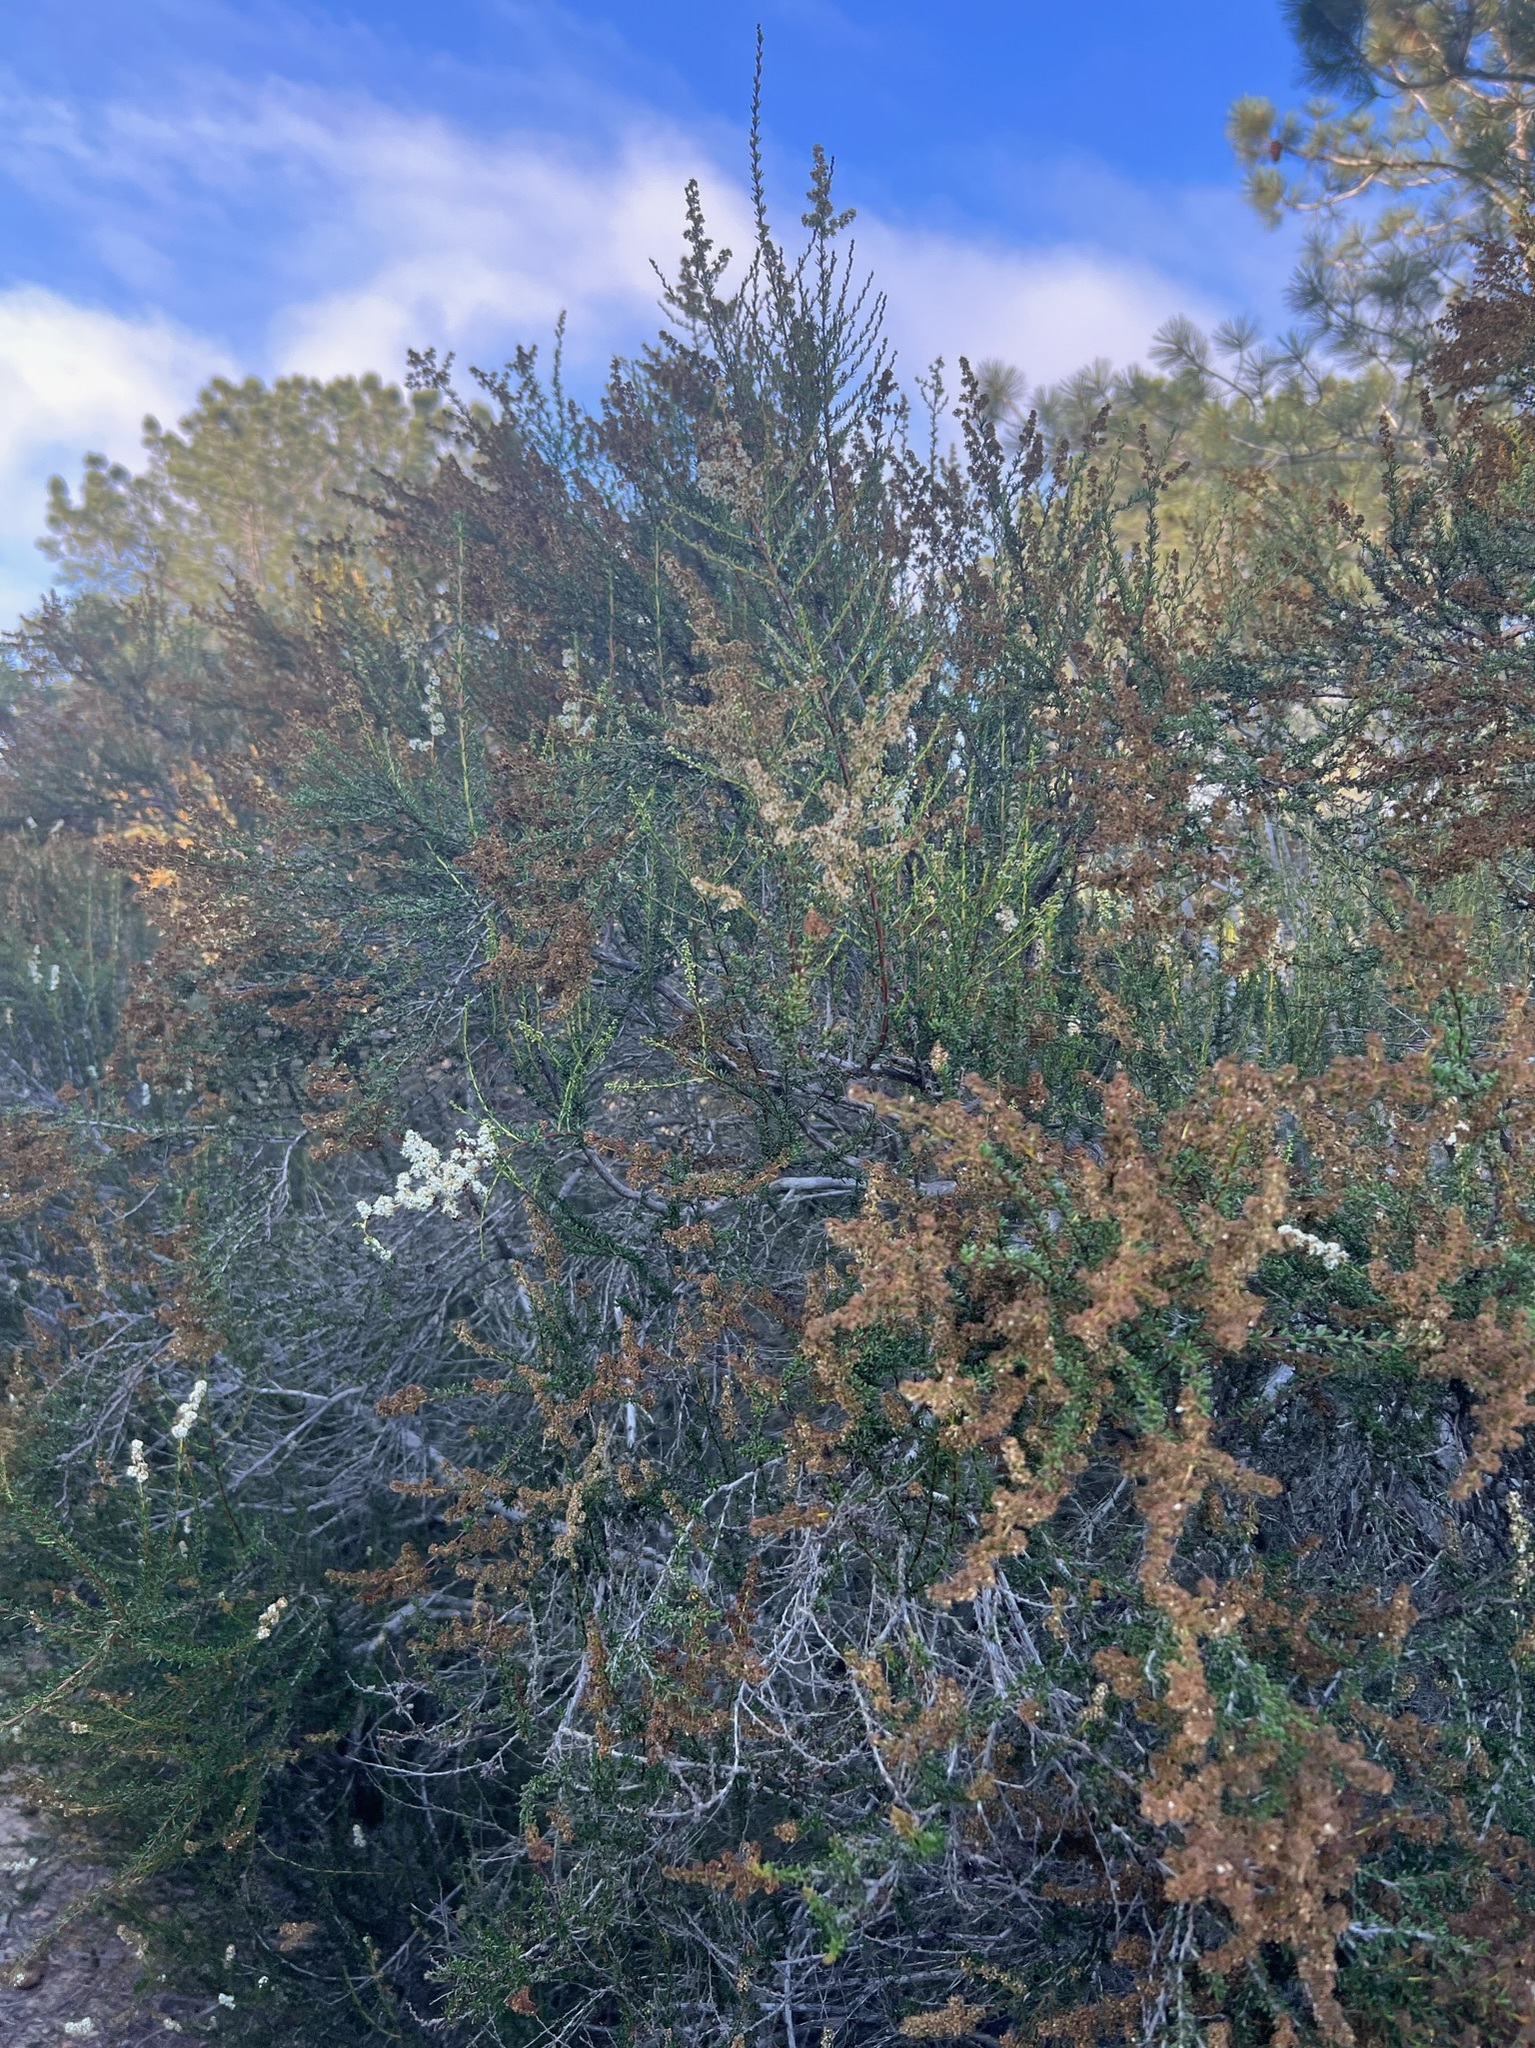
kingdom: Plantae
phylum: Tracheophyta
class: Magnoliopsida
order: Rosales
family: Rosaceae
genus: Adenostoma
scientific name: Adenostoma fasciculatum
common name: Chamise
